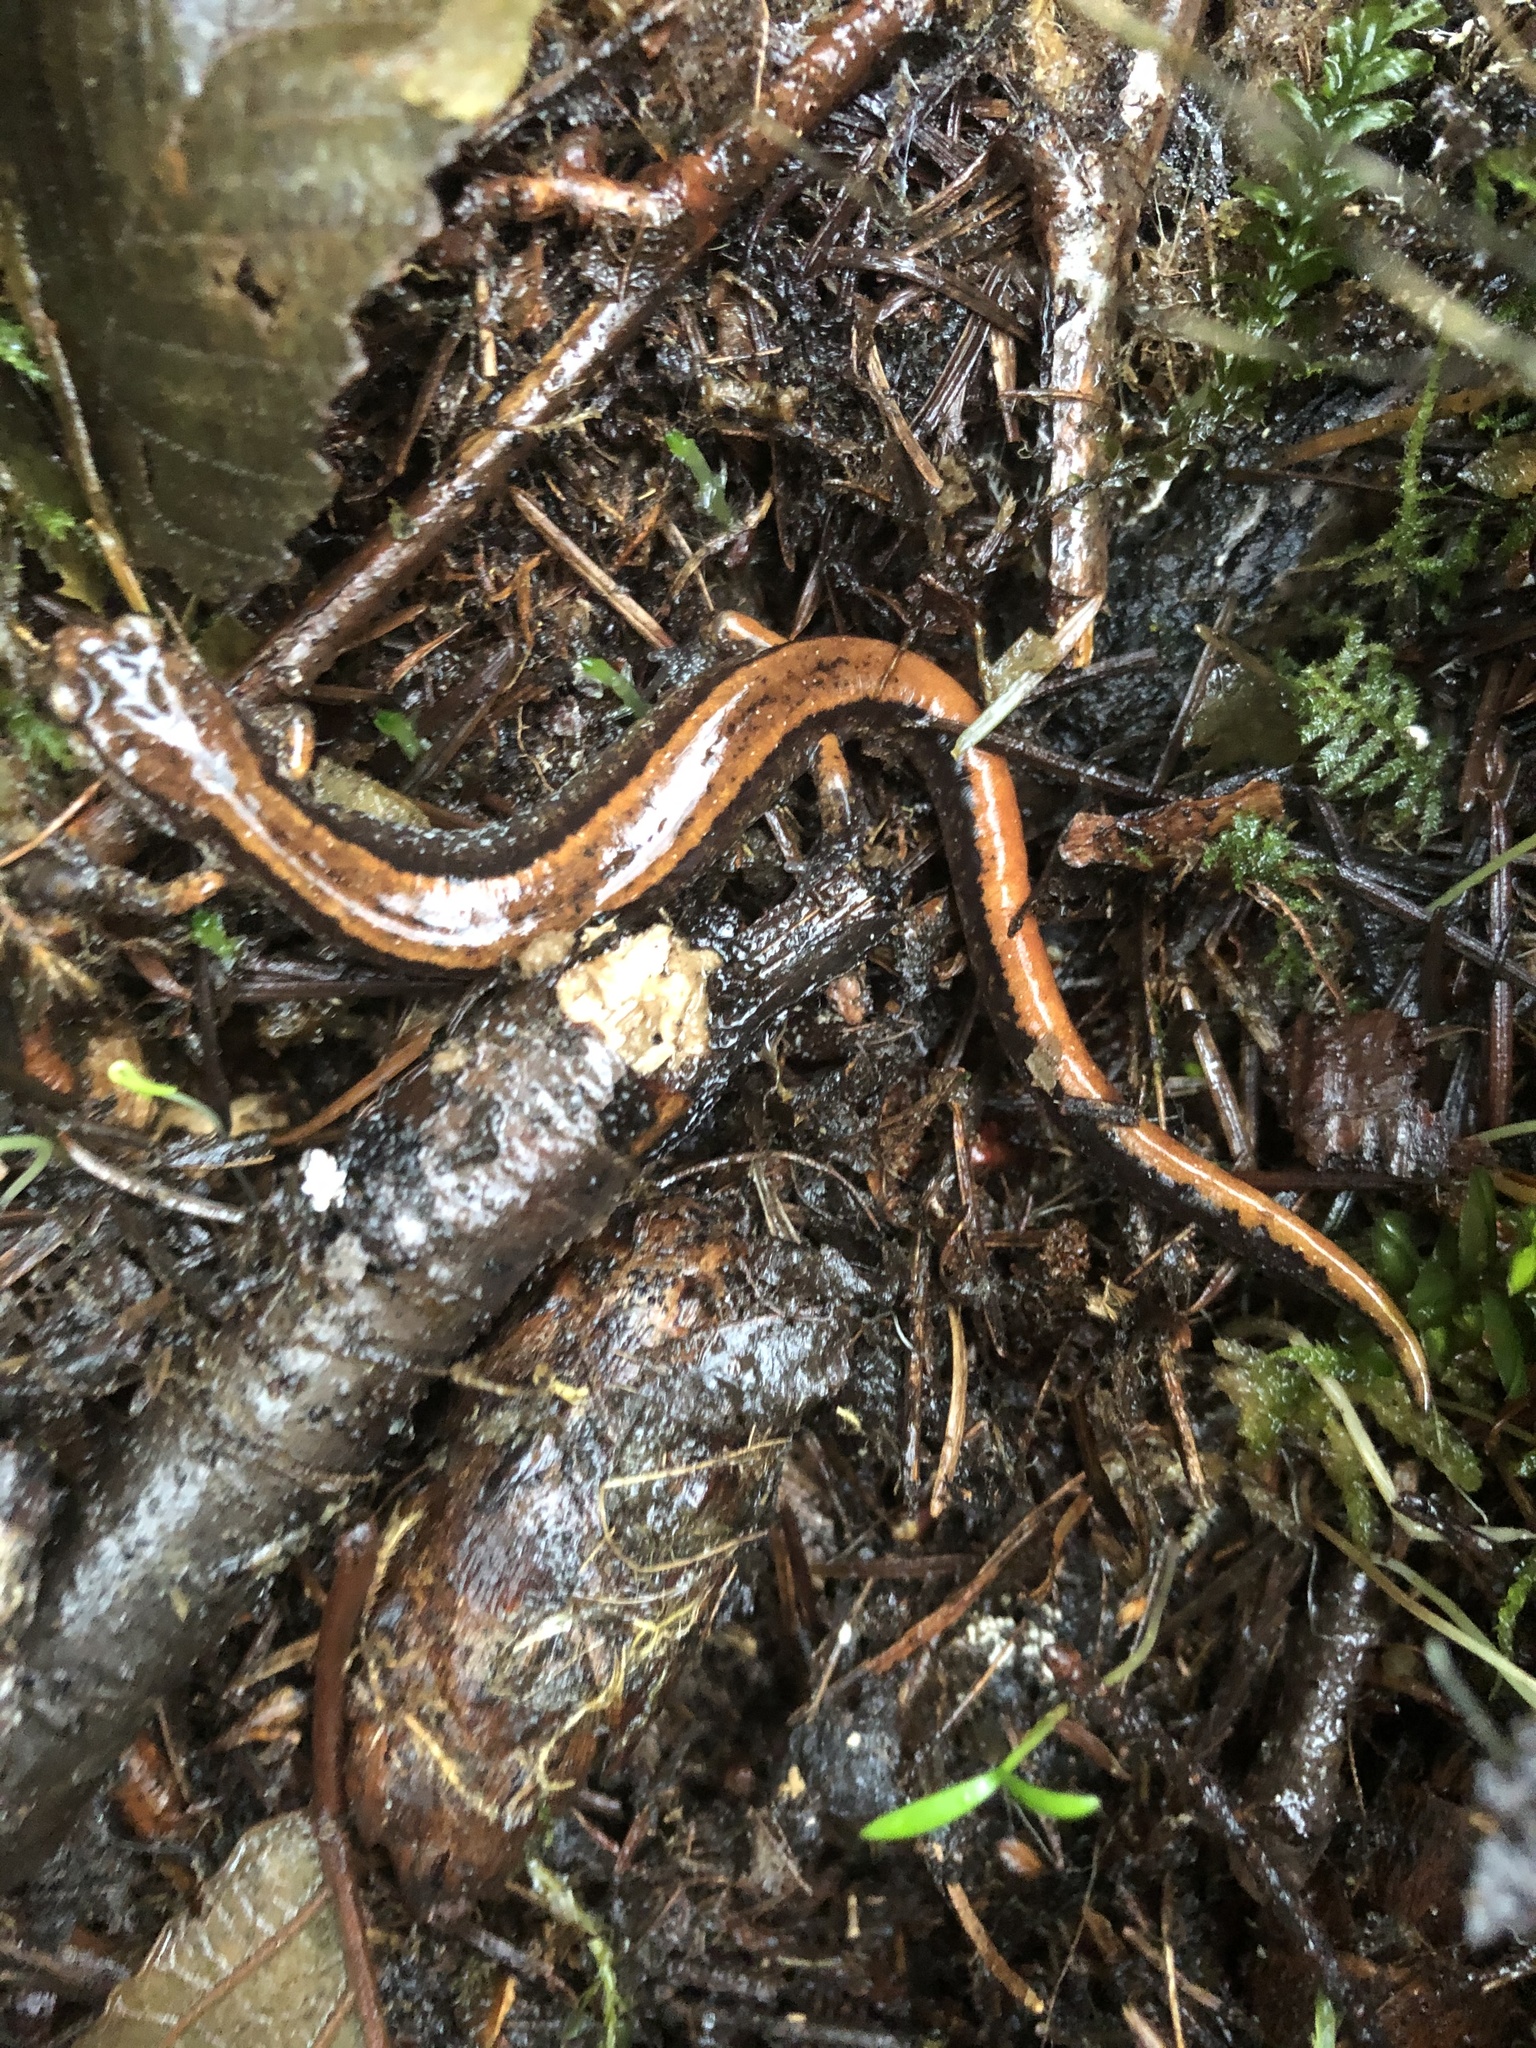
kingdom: Animalia
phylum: Chordata
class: Amphibia
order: Caudata
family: Plethodontidae
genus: Plethodon
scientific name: Plethodon vehiculum
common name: Western red-backed salamander
